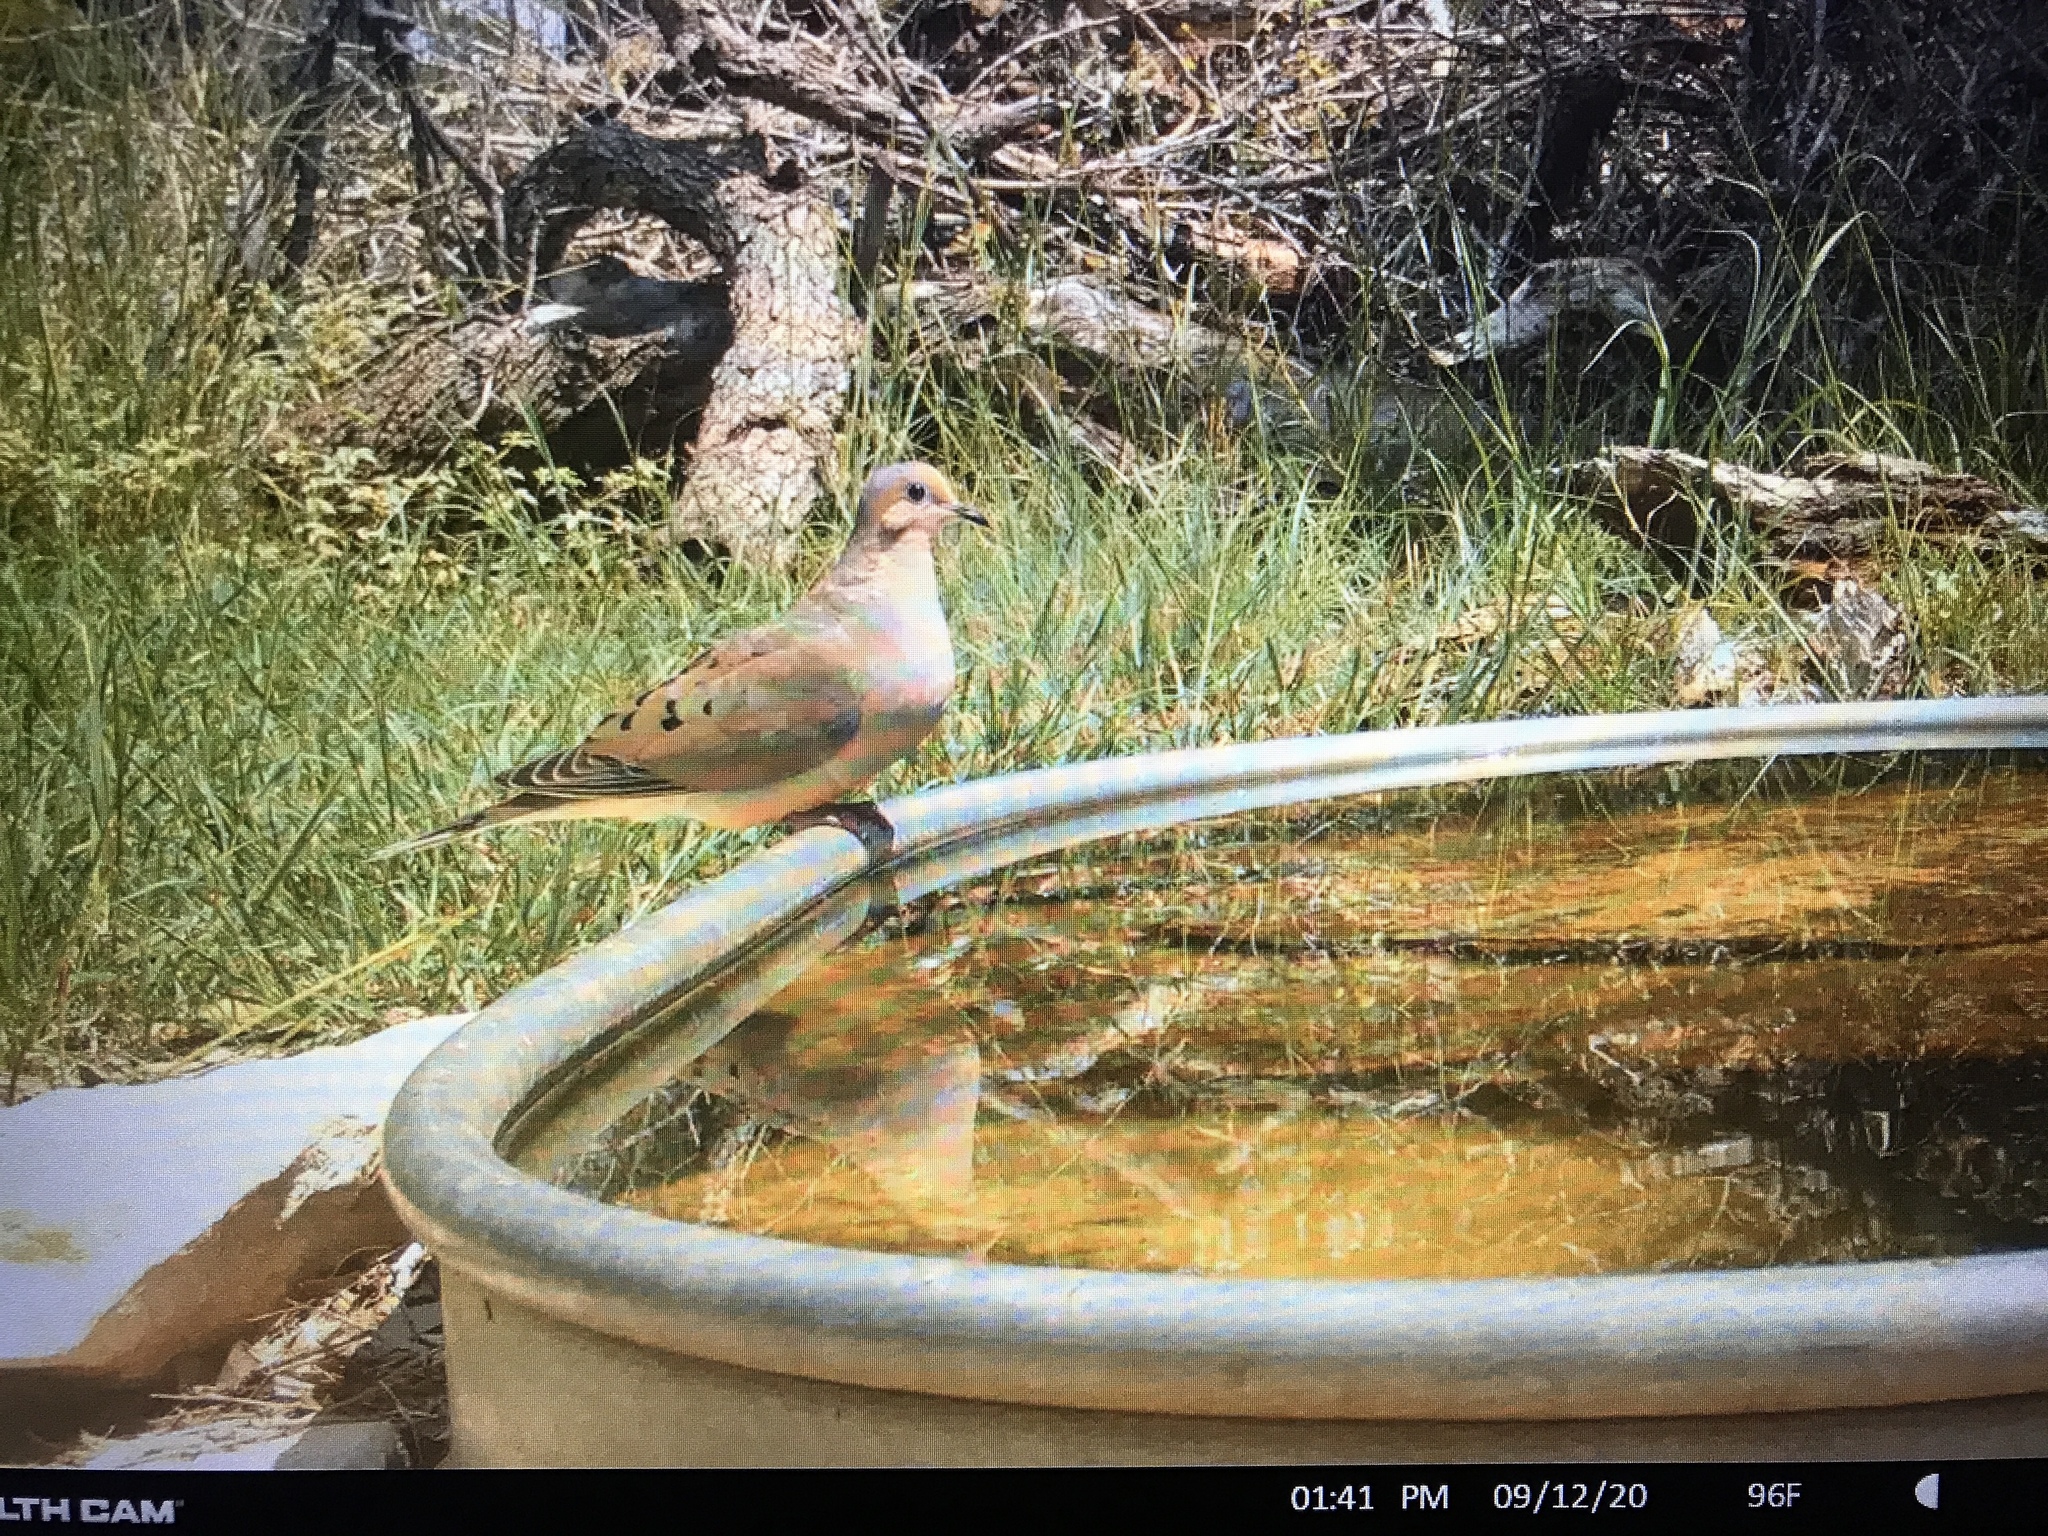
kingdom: Animalia
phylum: Chordata
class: Aves
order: Columbiformes
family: Columbidae
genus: Zenaida
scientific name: Zenaida macroura
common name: Mourning dove
